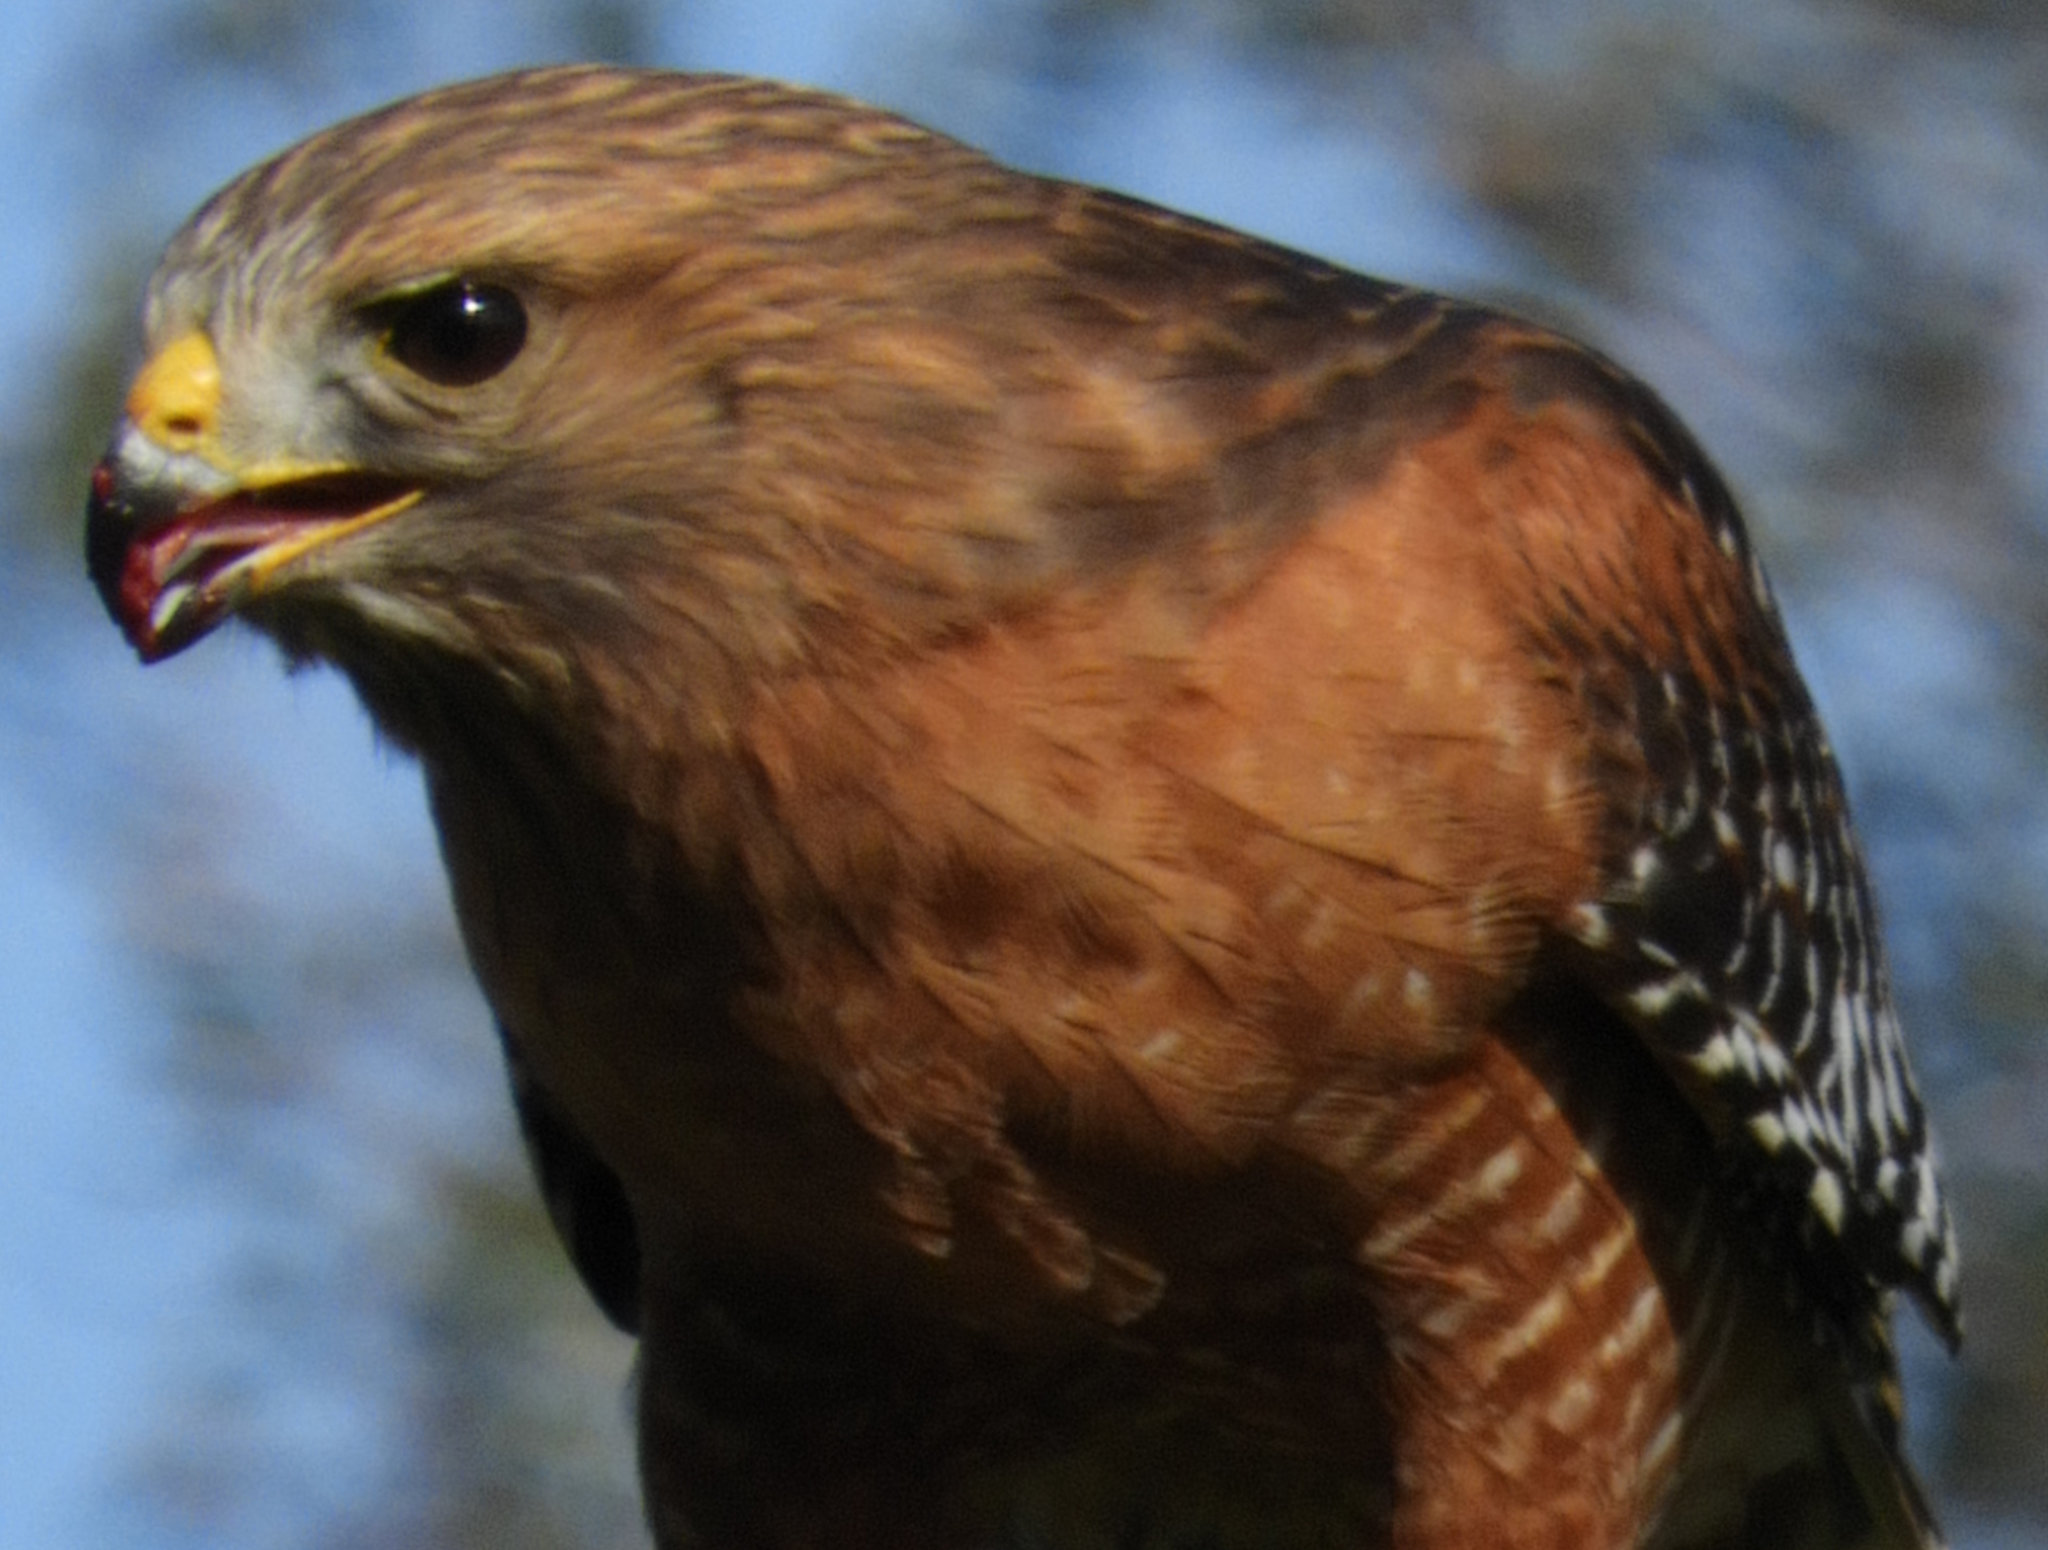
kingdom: Animalia
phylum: Chordata
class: Aves
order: Accipitriformes
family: Accipitridae
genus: Buteo
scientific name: Buteo lineatus
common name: Red-shouldered hawk
